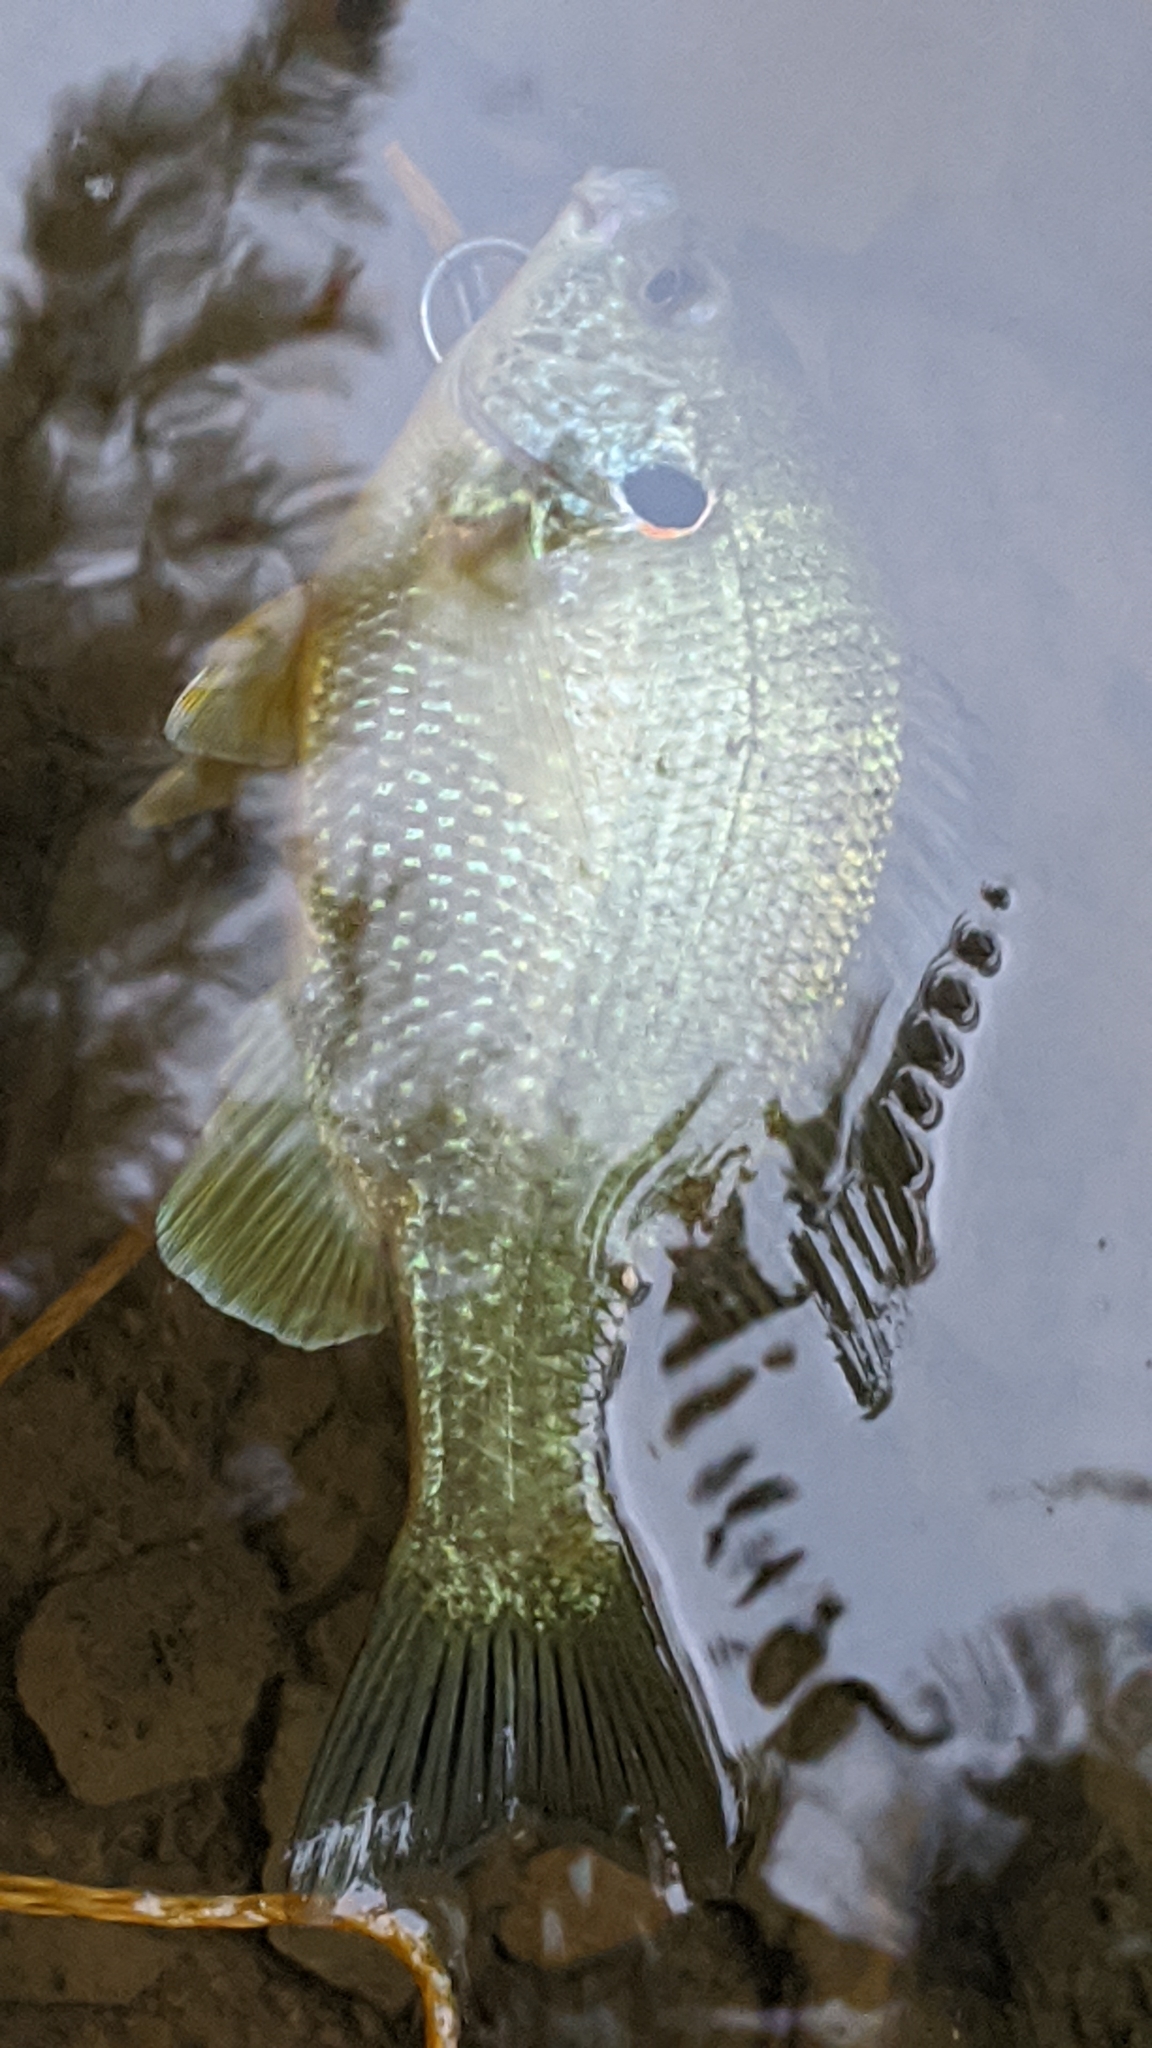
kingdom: Animalia
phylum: Chordata
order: Perciformes
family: Centrarchidae
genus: Lepomis
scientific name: Lepomis microlophus
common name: Redear sunfish
